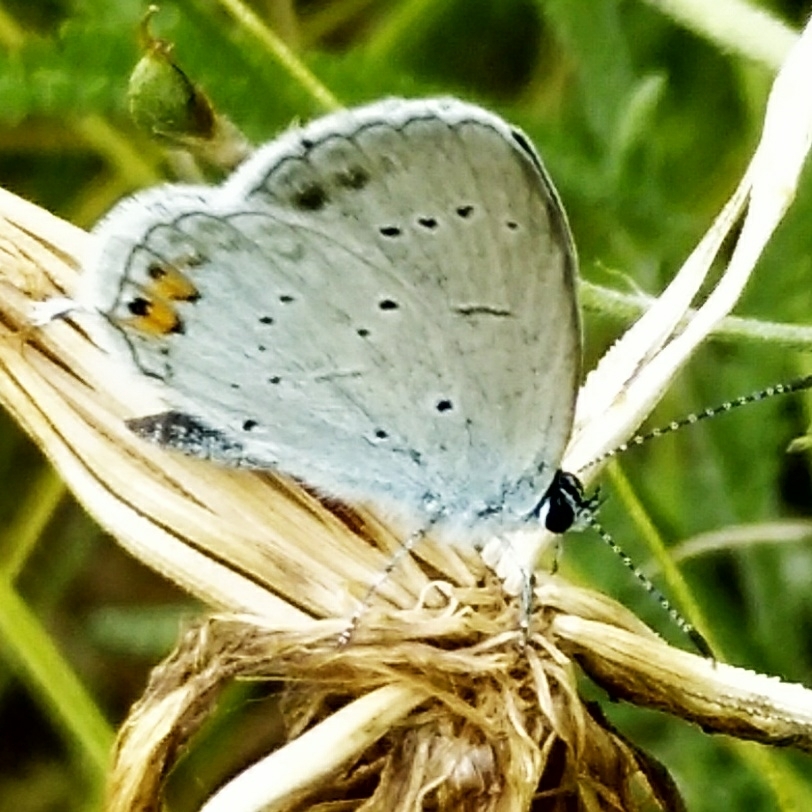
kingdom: Animalia
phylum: Arthropoda
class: Insecta
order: Lepidoptera
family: Lycaenidae
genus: Elkalyce
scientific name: Elkalyce argiades
